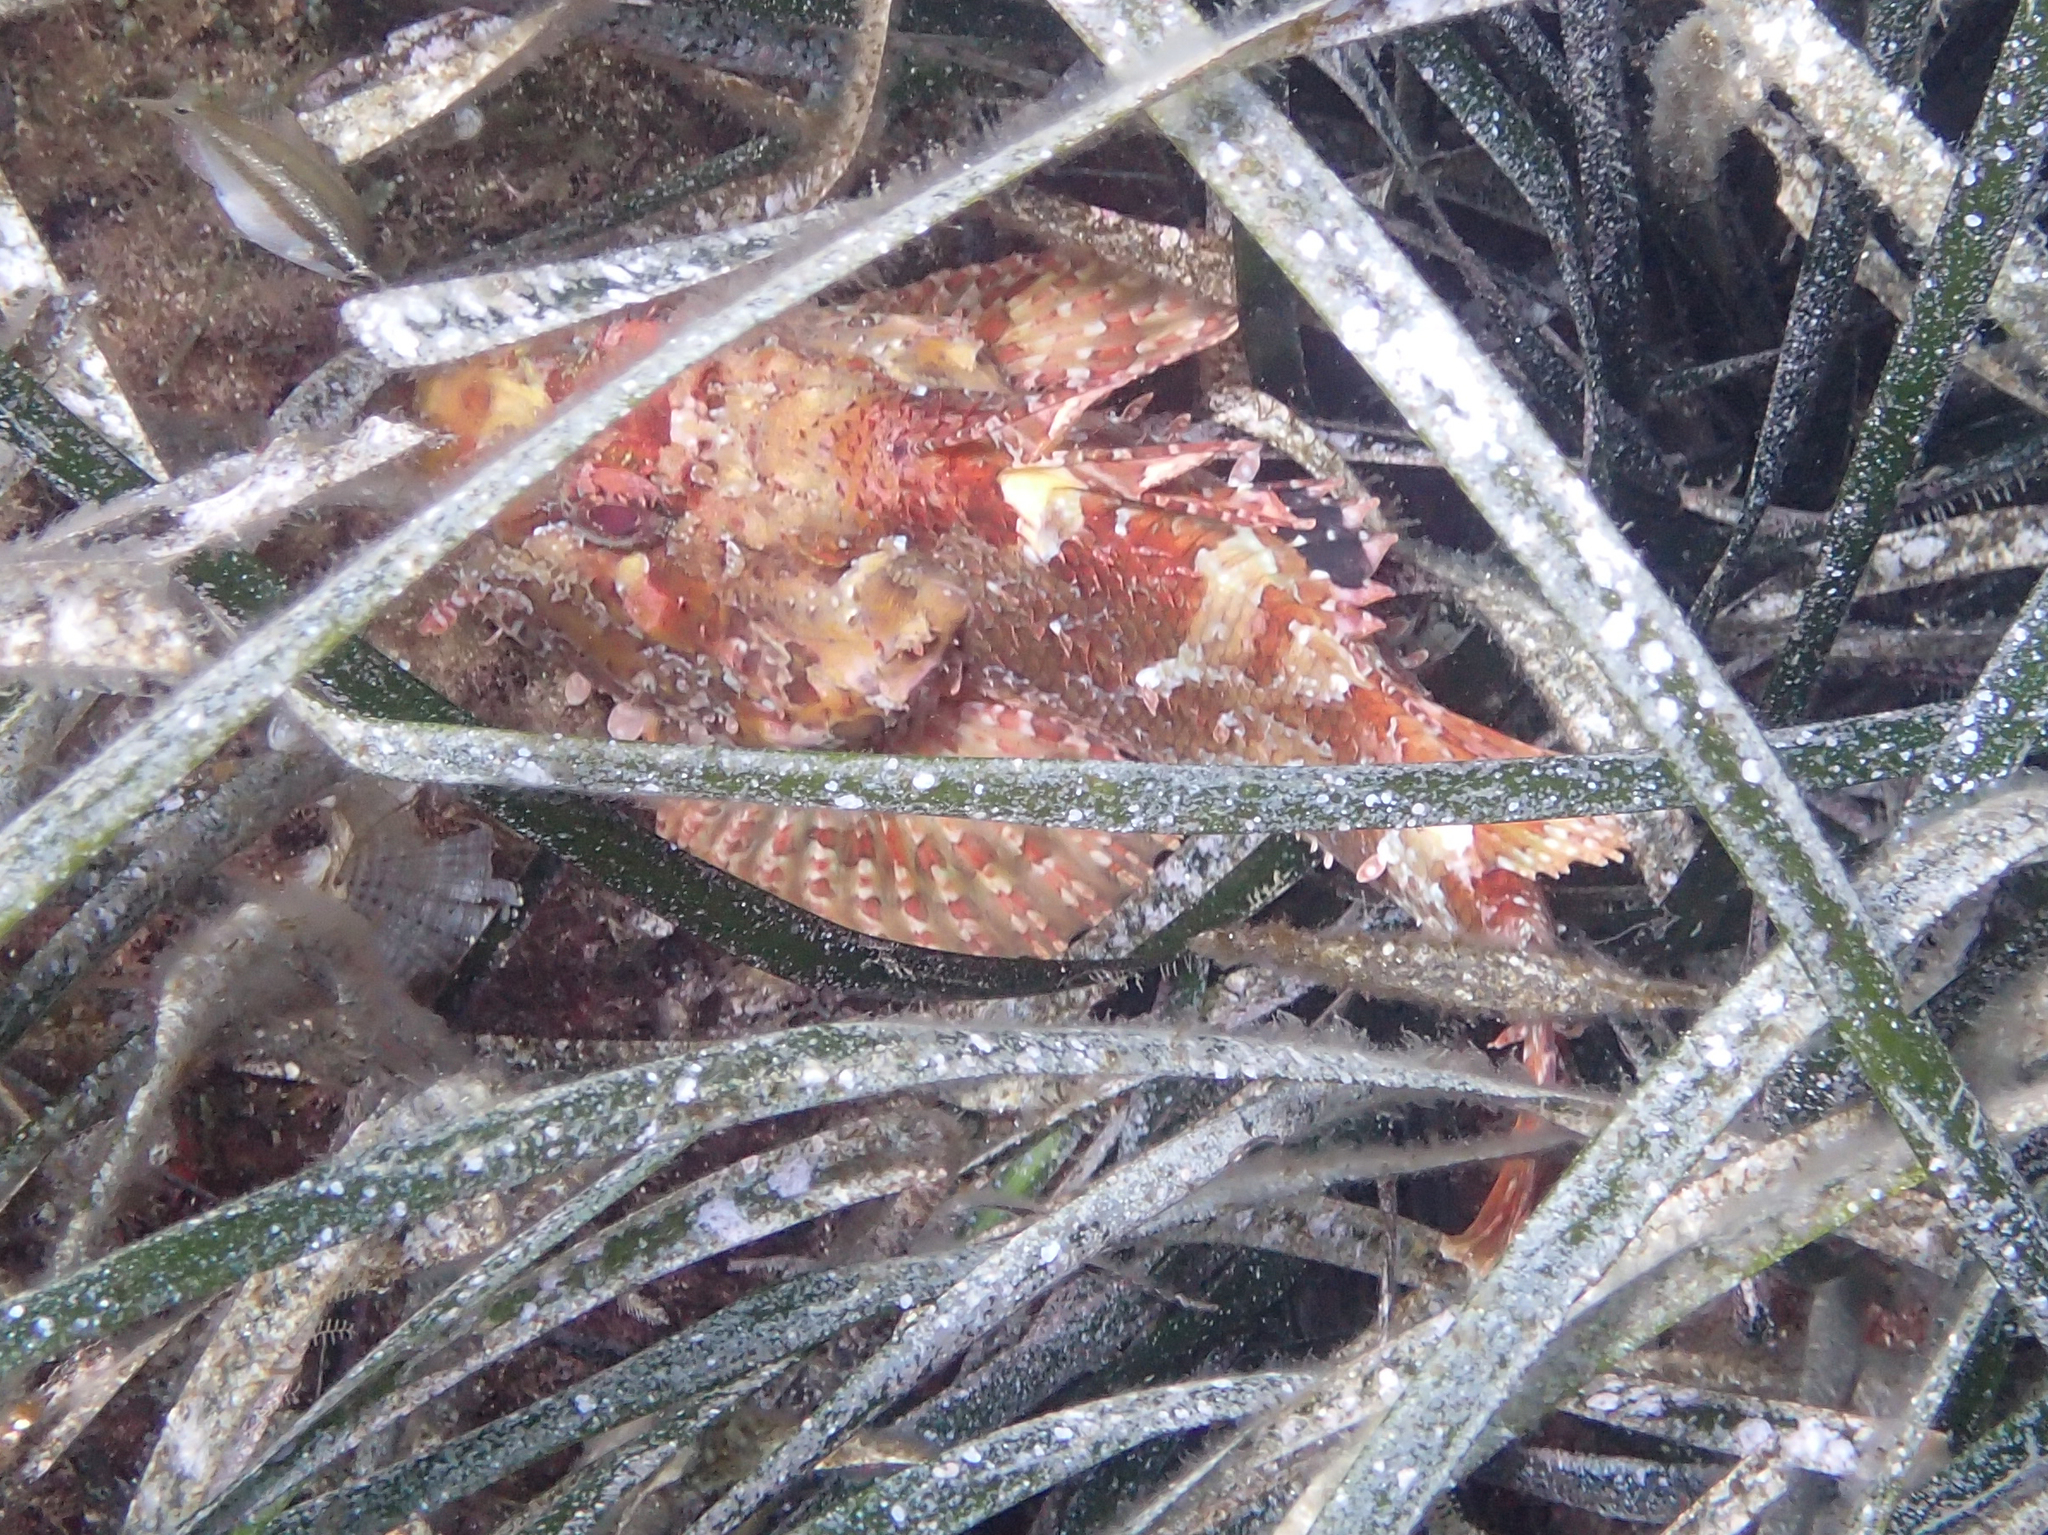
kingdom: Animalia
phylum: Chordata
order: Scorpaeniformes
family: Scorpaenidae
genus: Scorpaena
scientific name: Scorpaena scrofa
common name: Red scorpionfish
